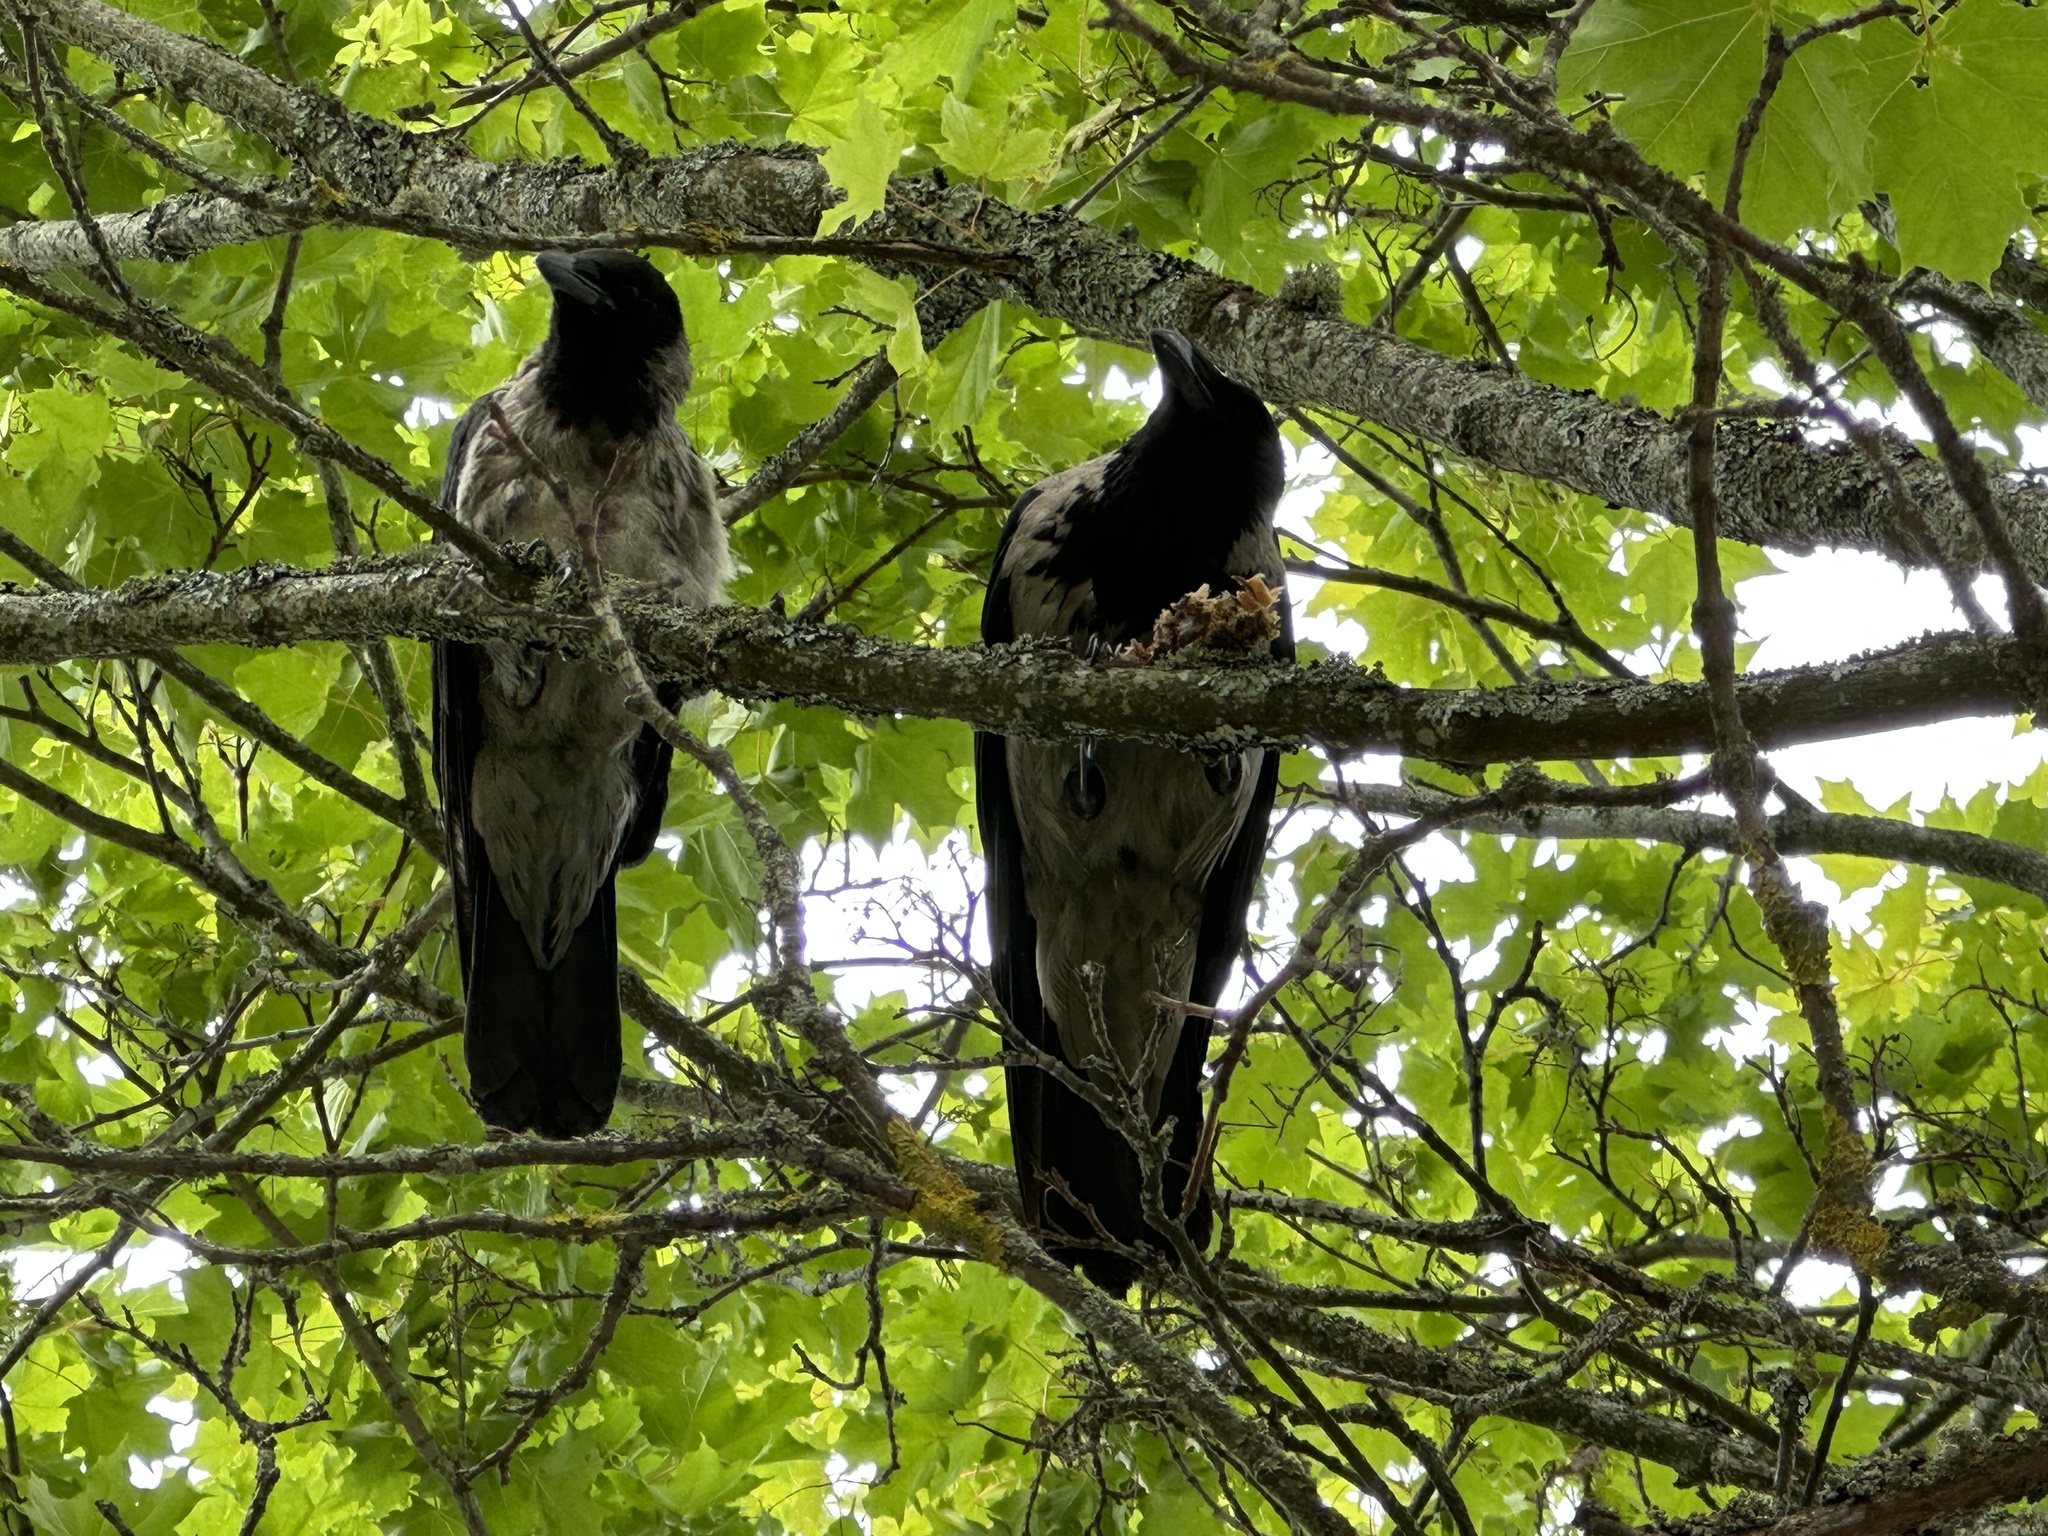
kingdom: Animalia
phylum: Chordata
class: Aves
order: Passeriformes
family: Corvidae
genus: Corvus
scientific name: Corvus cornix
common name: Hooded crow
